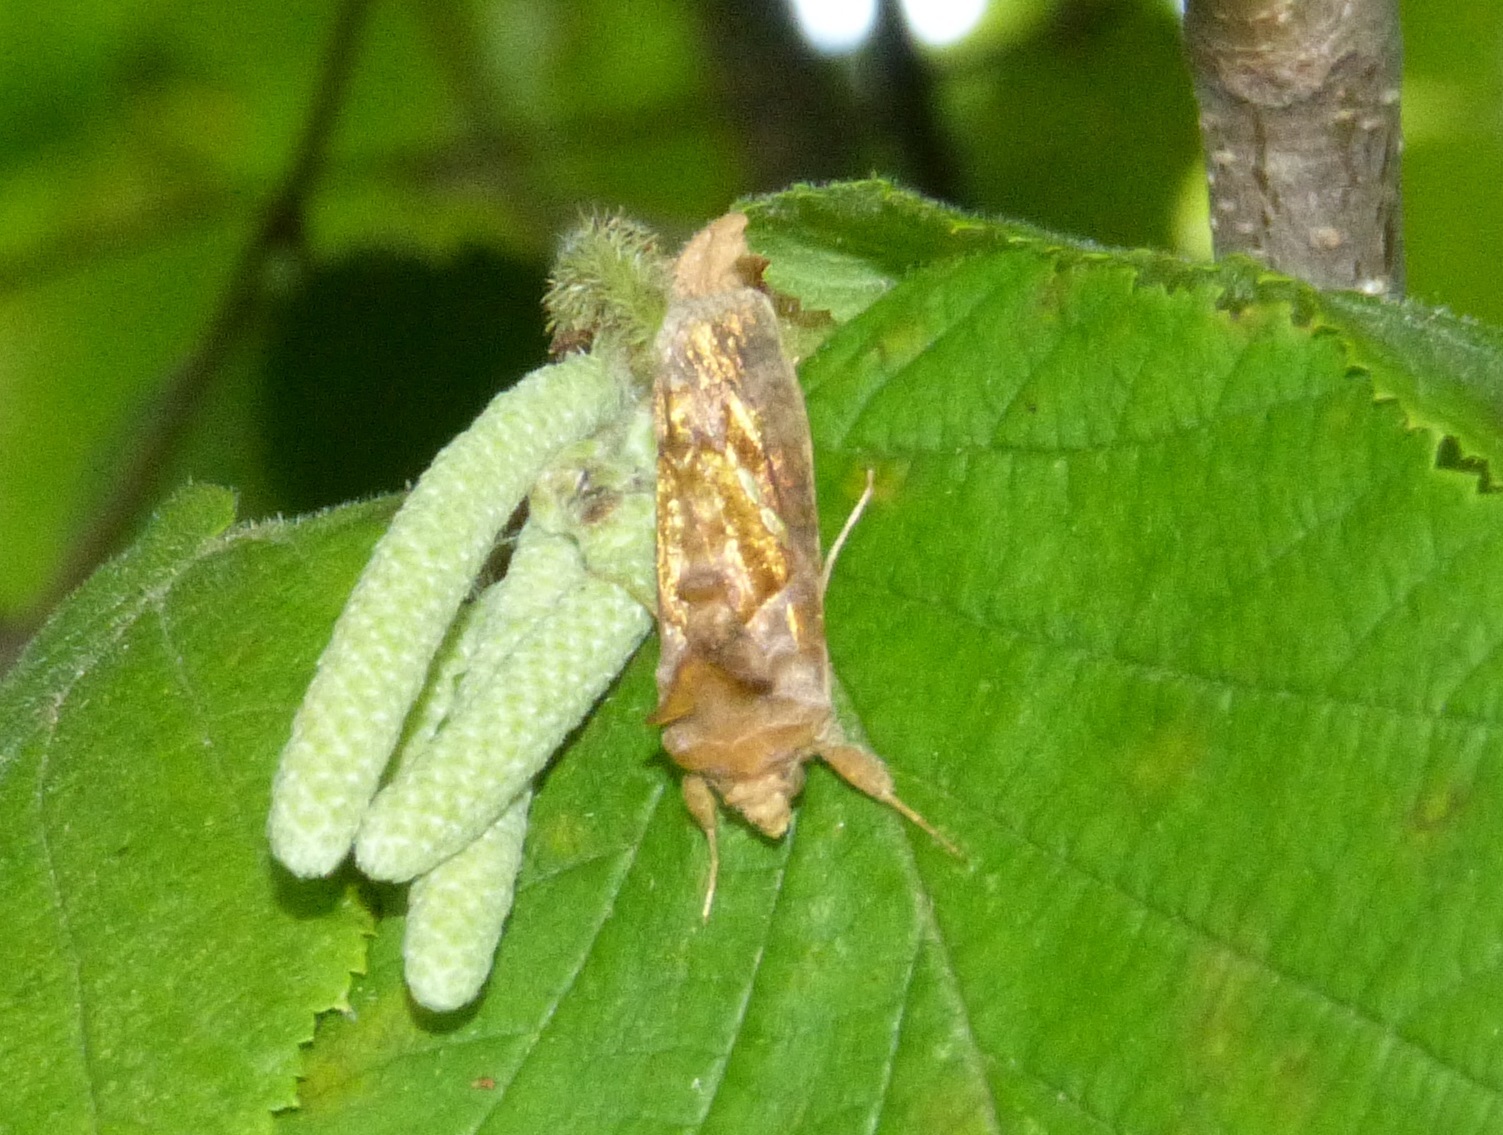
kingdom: Animalia
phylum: Arthropoda
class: Insecta
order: Lepidoptera
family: Noctuidae
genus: Chrysodeixis
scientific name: Chrysodeixis chalcites
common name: Golden twin-spot
